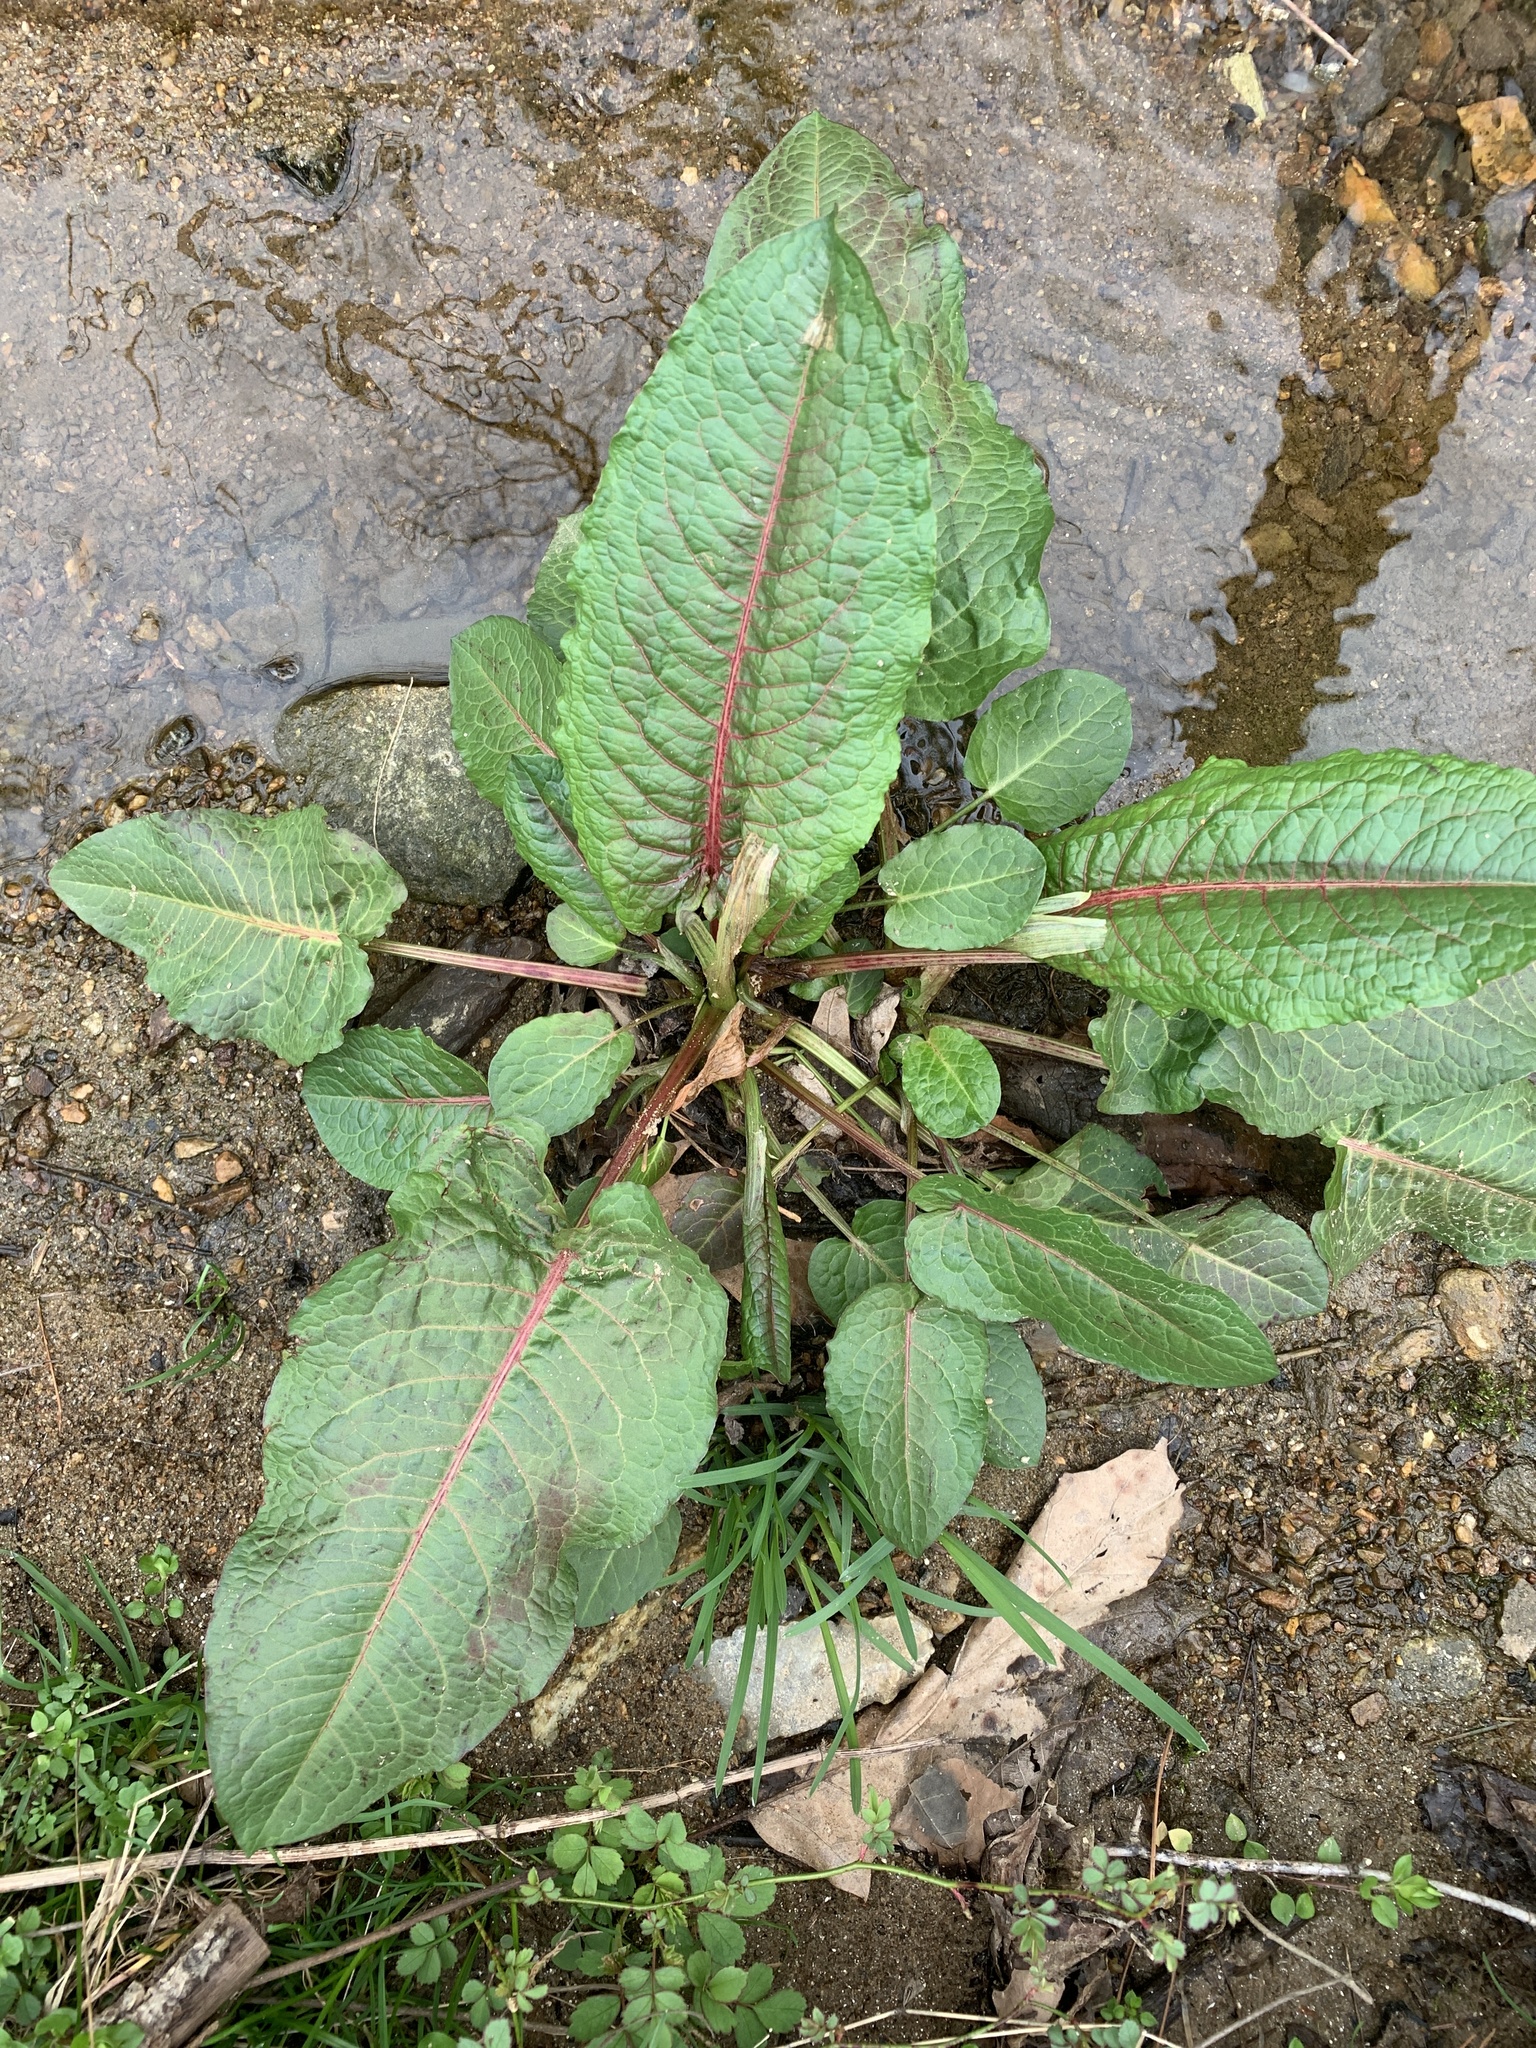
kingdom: Plantae
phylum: Tracheophyta
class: Magnoliopsida
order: Caryophyllales
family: Polygonaceae
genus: Rumex
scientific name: Rumex obtusifolius
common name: Bitter dock
